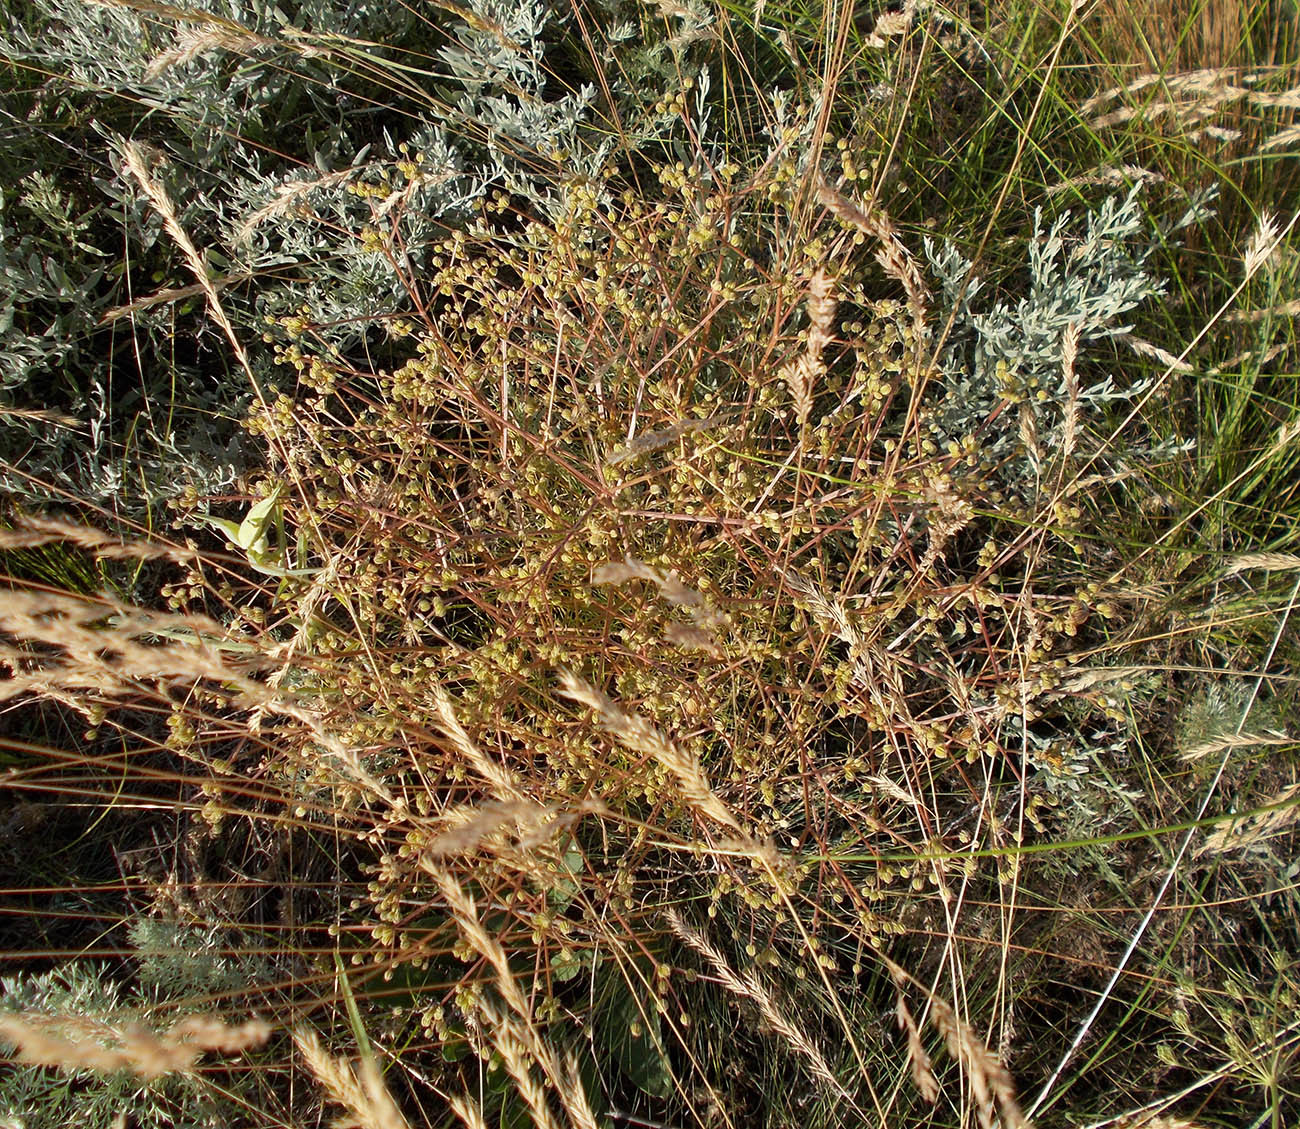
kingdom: Plantae
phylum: Tracheophyta
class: Magnoliopsida
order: Apiales
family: Apiaceae
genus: Trinia
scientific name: Trinia hispida
